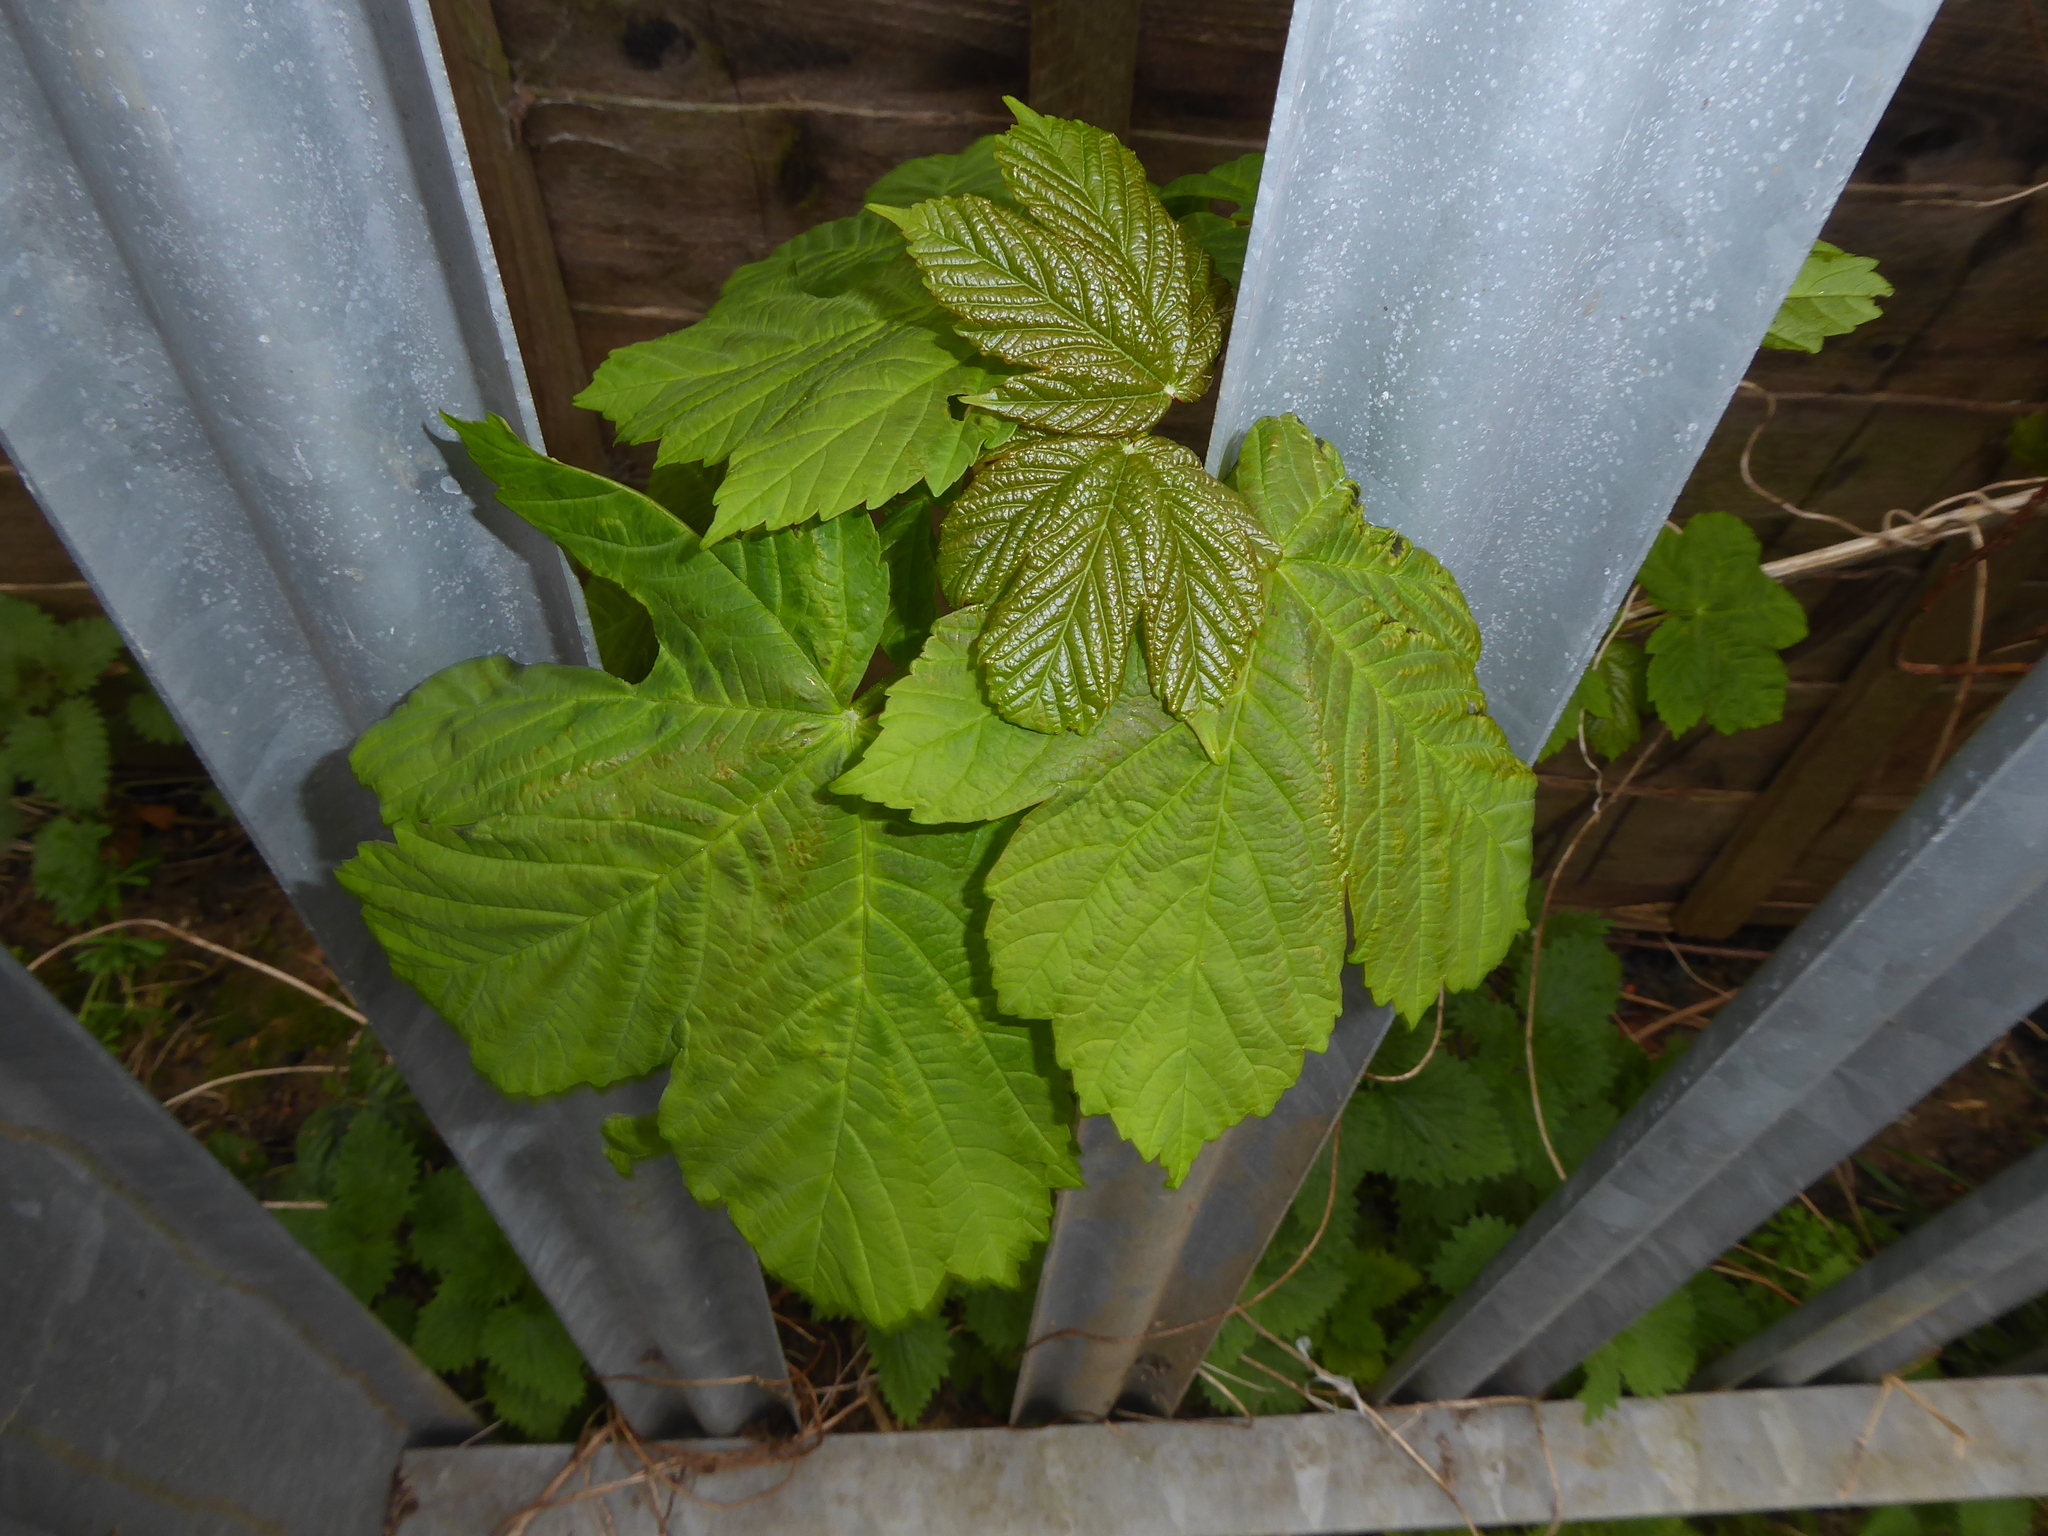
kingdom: Plantae
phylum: Tracheophyta
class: Magnoliopsida
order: Sapindales
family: Sapindaceae
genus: Acer
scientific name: Acer pseudoplatanus
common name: Sycamore
